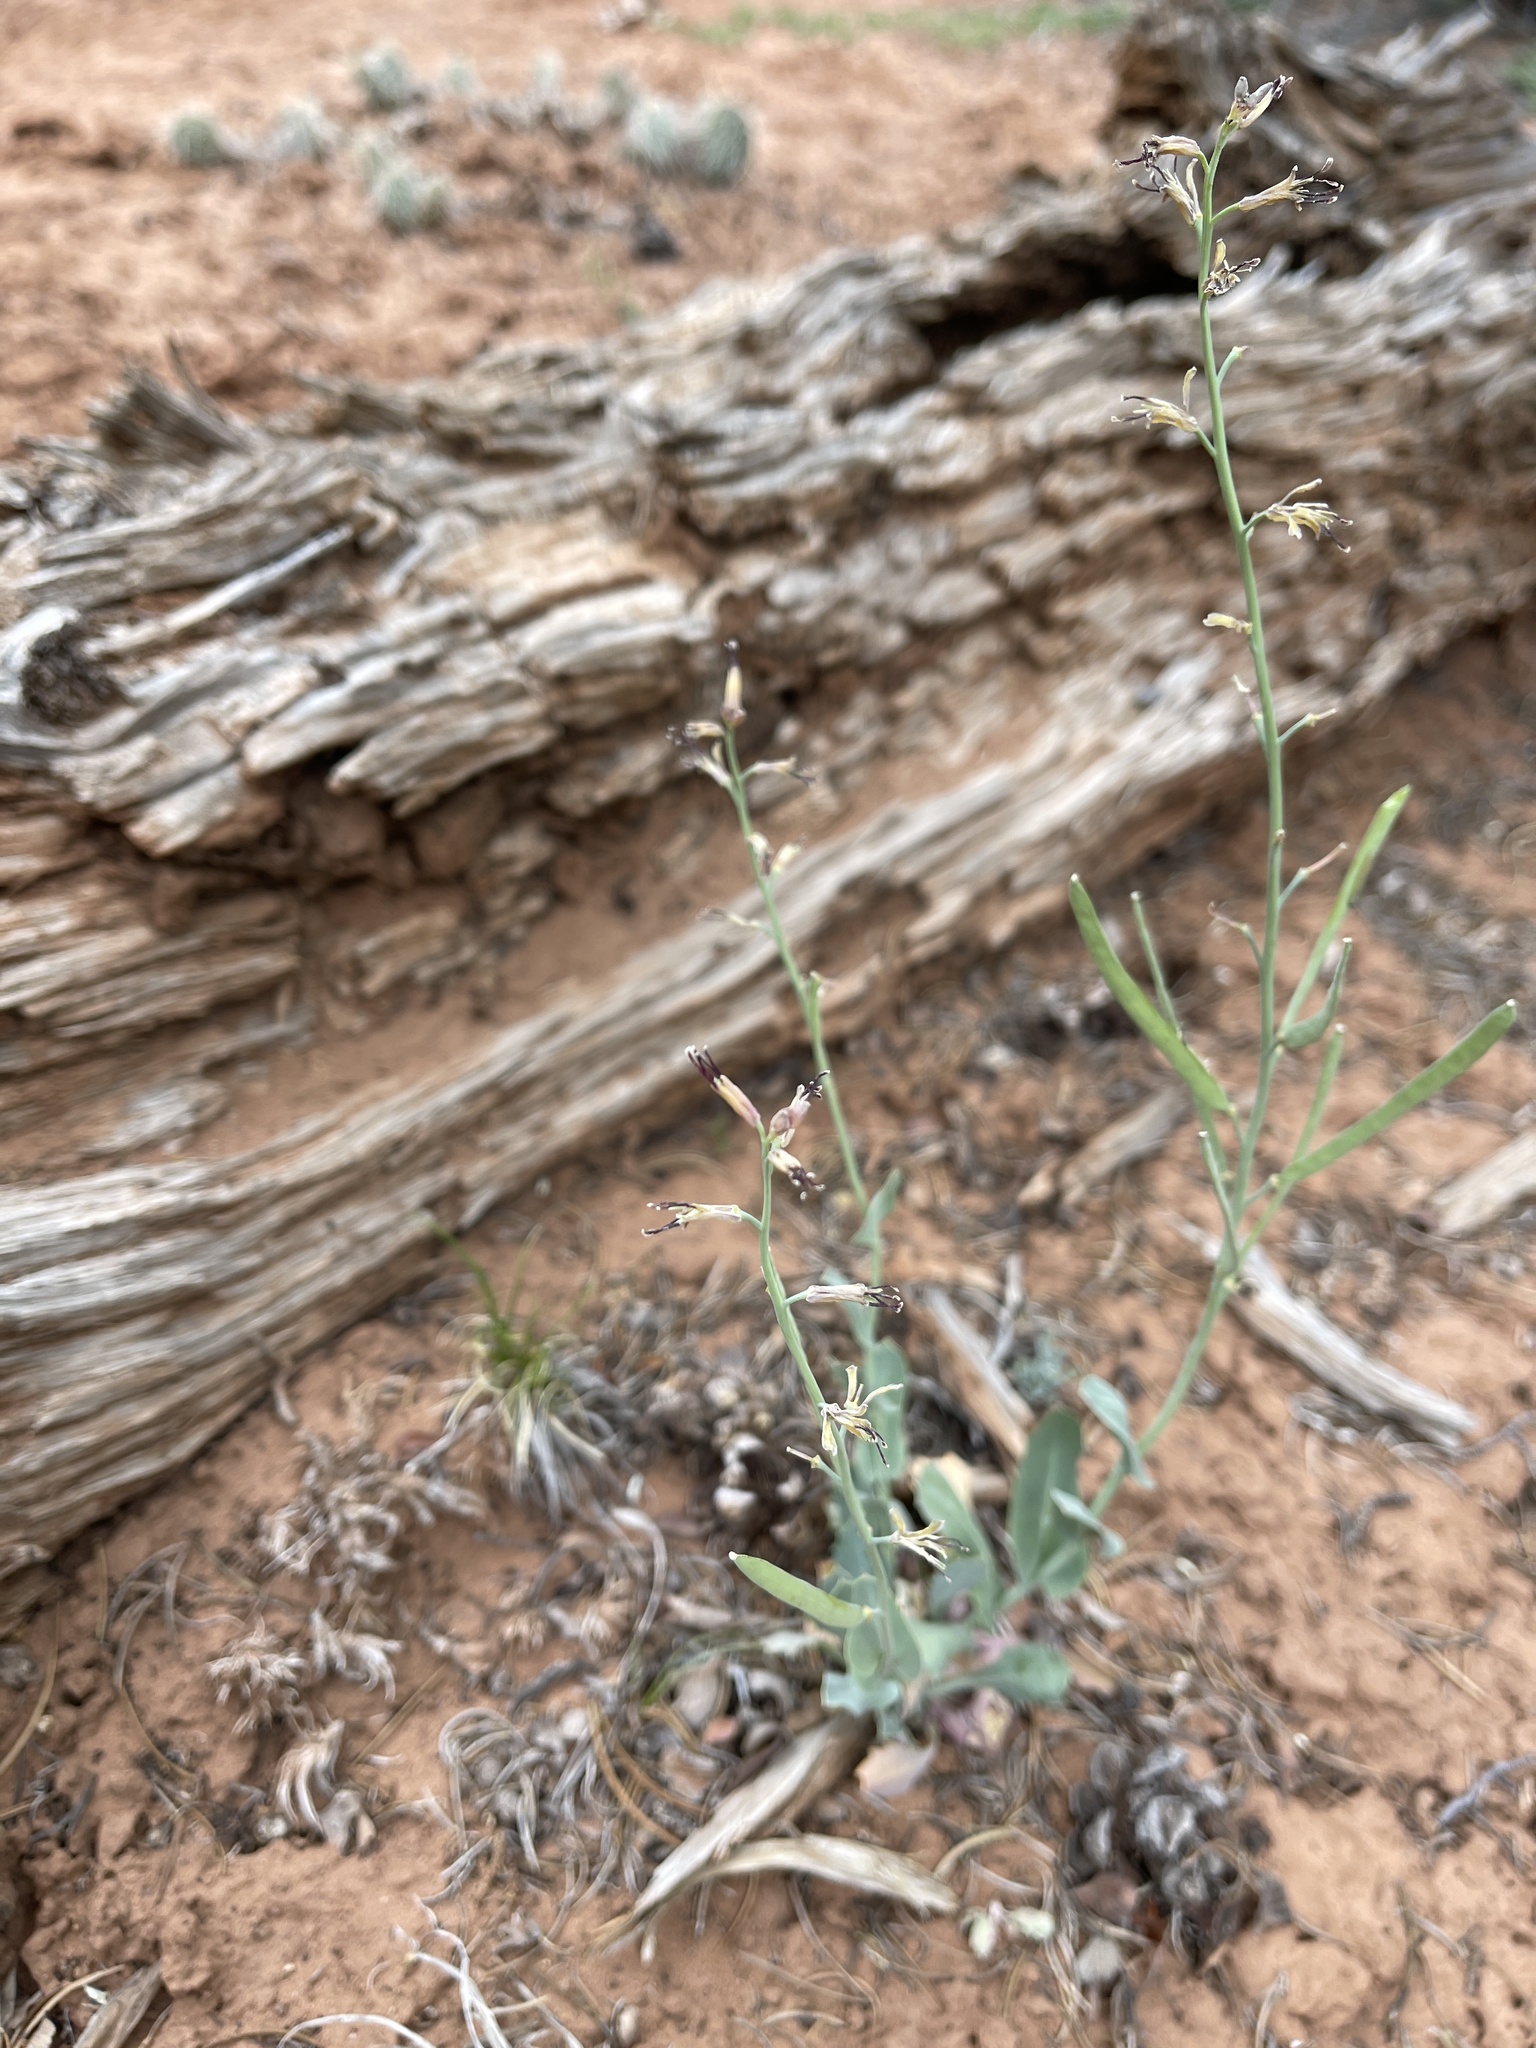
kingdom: Plantae
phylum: Tracheophyta
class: Magnoliopsida
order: Brassicales
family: Brassicaceae
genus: Streptanthus
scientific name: Streptanthus cordatus
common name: Heart-leaf jewel-flower
